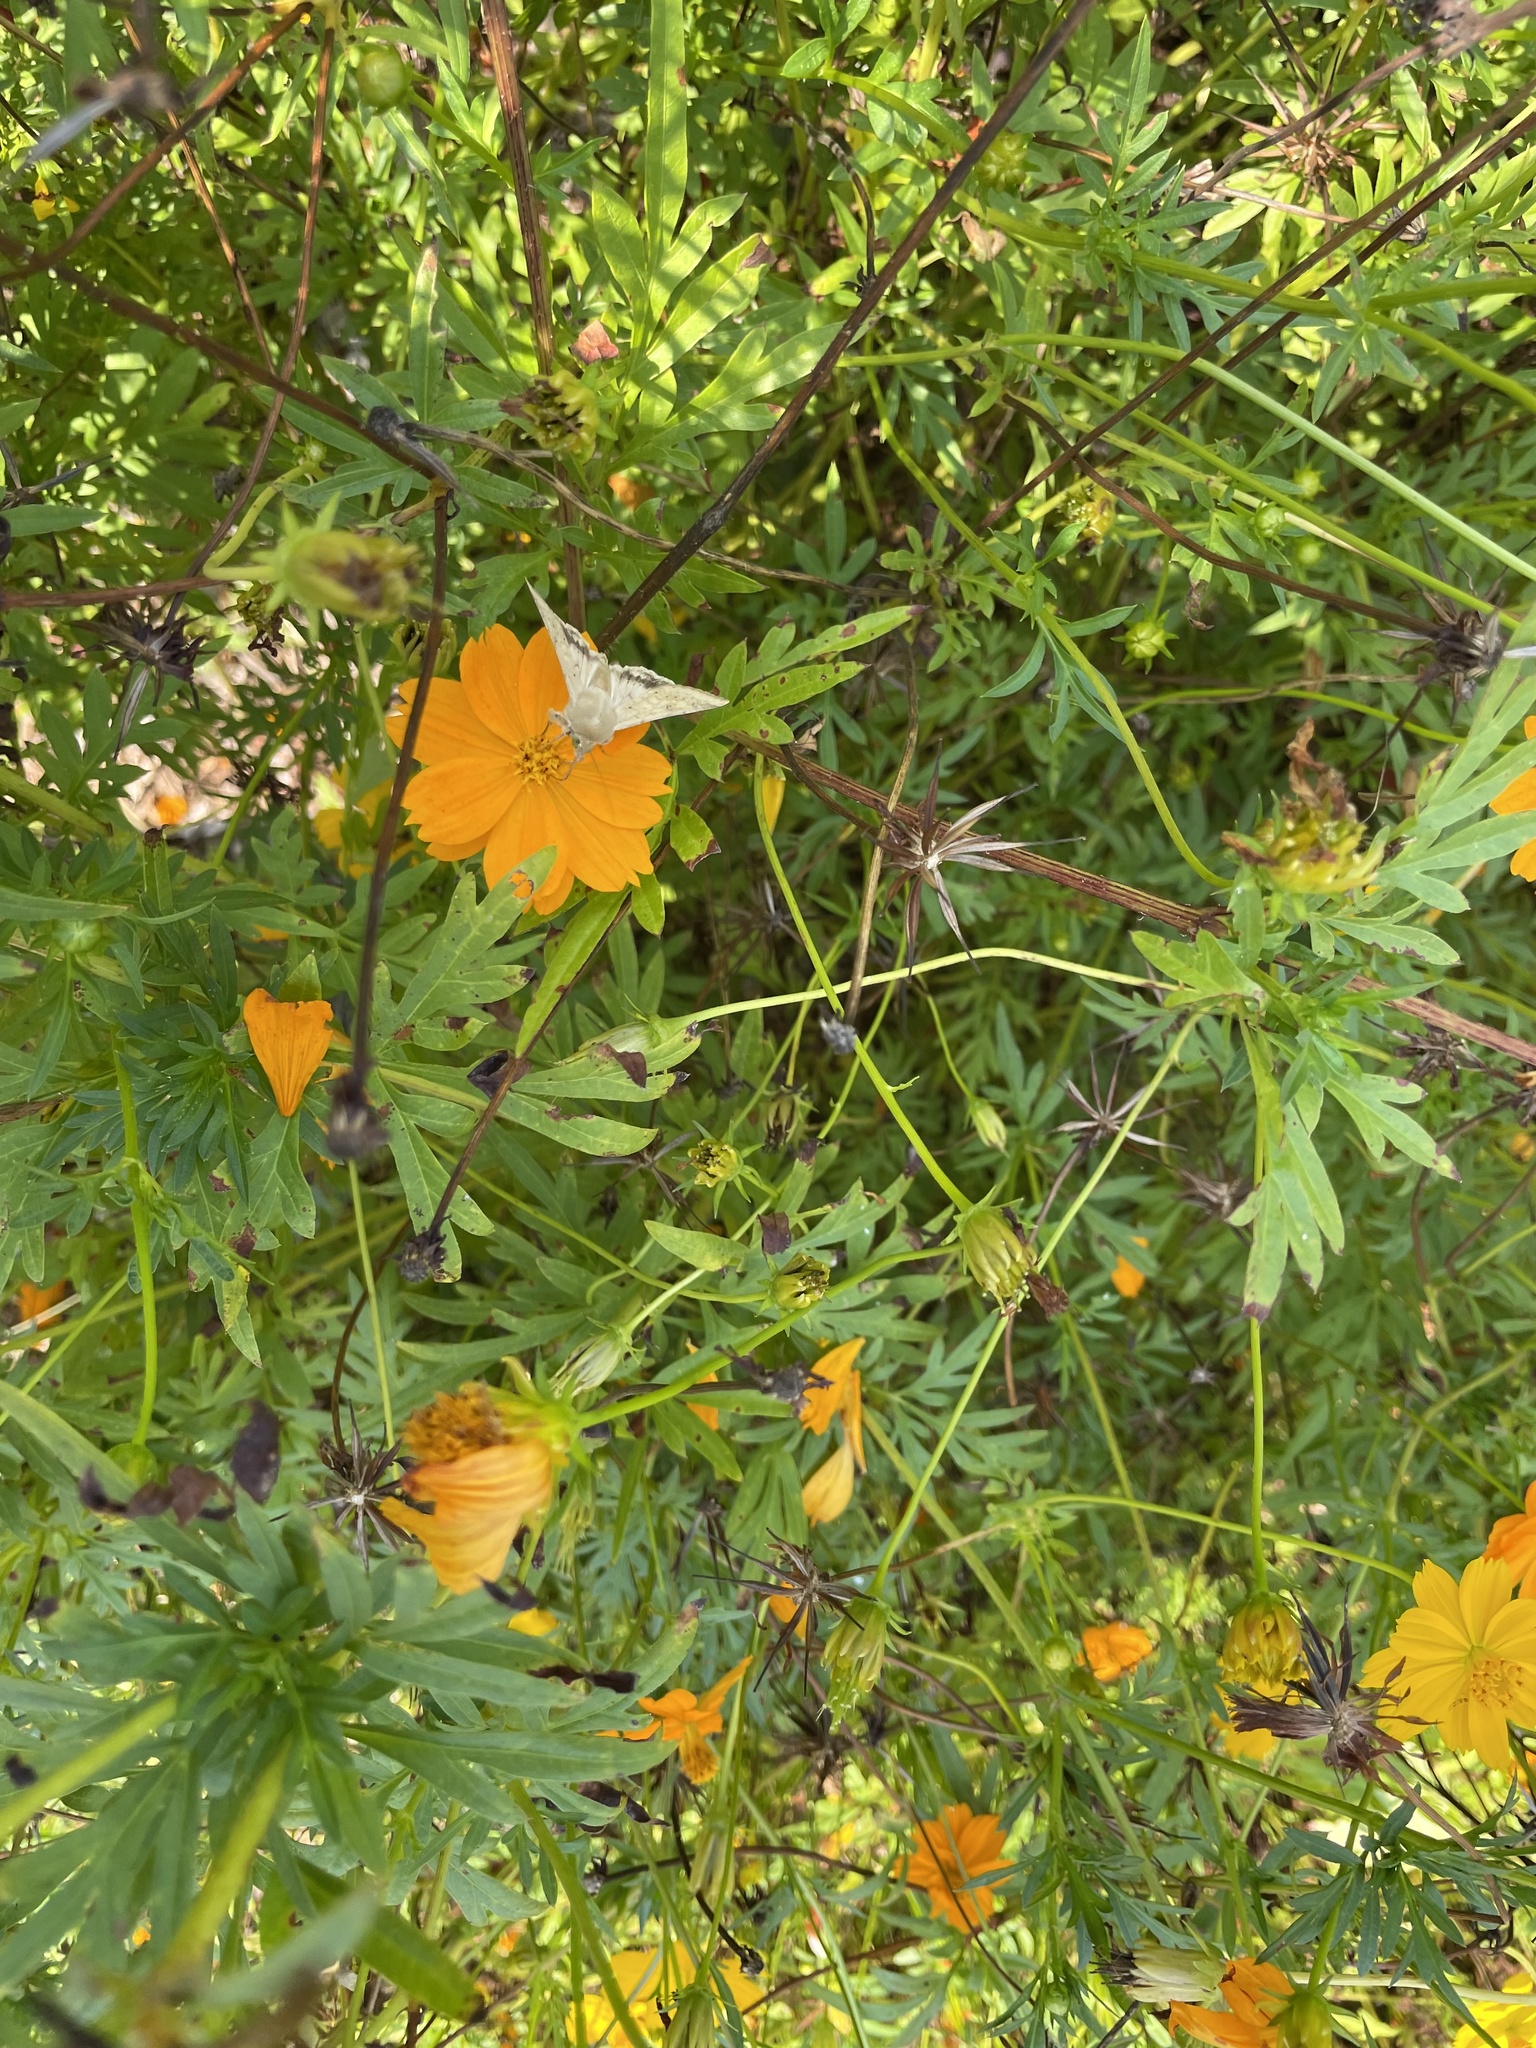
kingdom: Animalia
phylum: Arthropoda
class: Insecta
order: Lepidoptera
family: Noctuidae
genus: Helicoverpa
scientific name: Helicoverpa zea
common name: Bollworm
